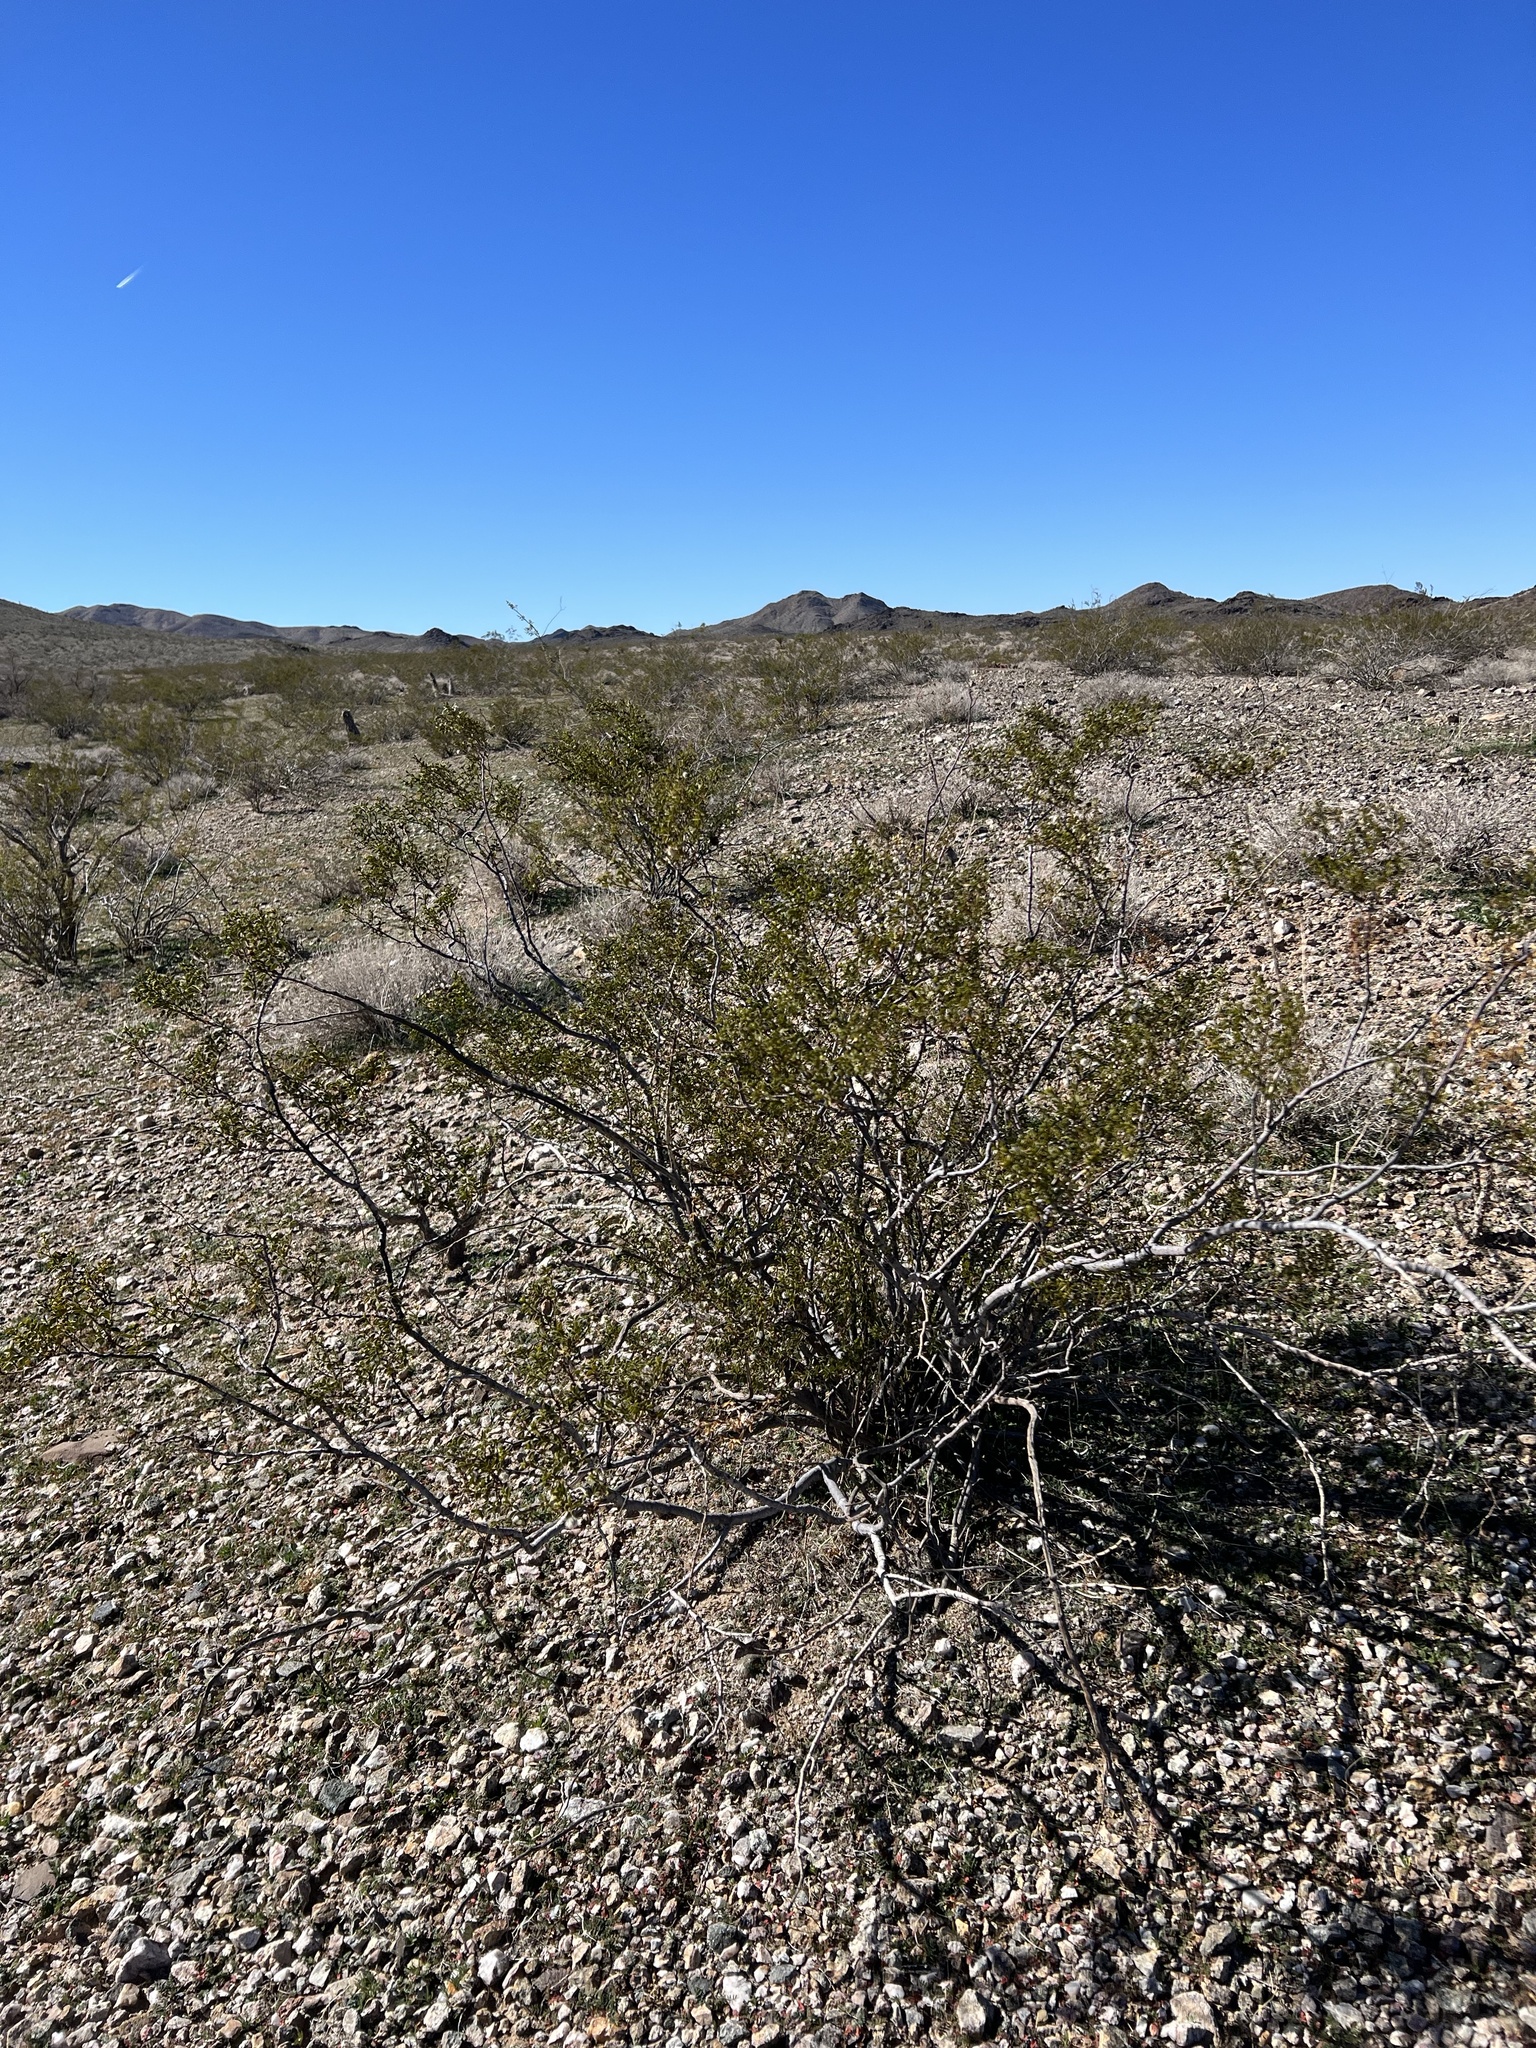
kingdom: Plantae
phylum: Tracheophyta
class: Magnoliopsida
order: Zygophyllales
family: Zygophyllaceae
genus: Larrea
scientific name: Larrea tridentata
